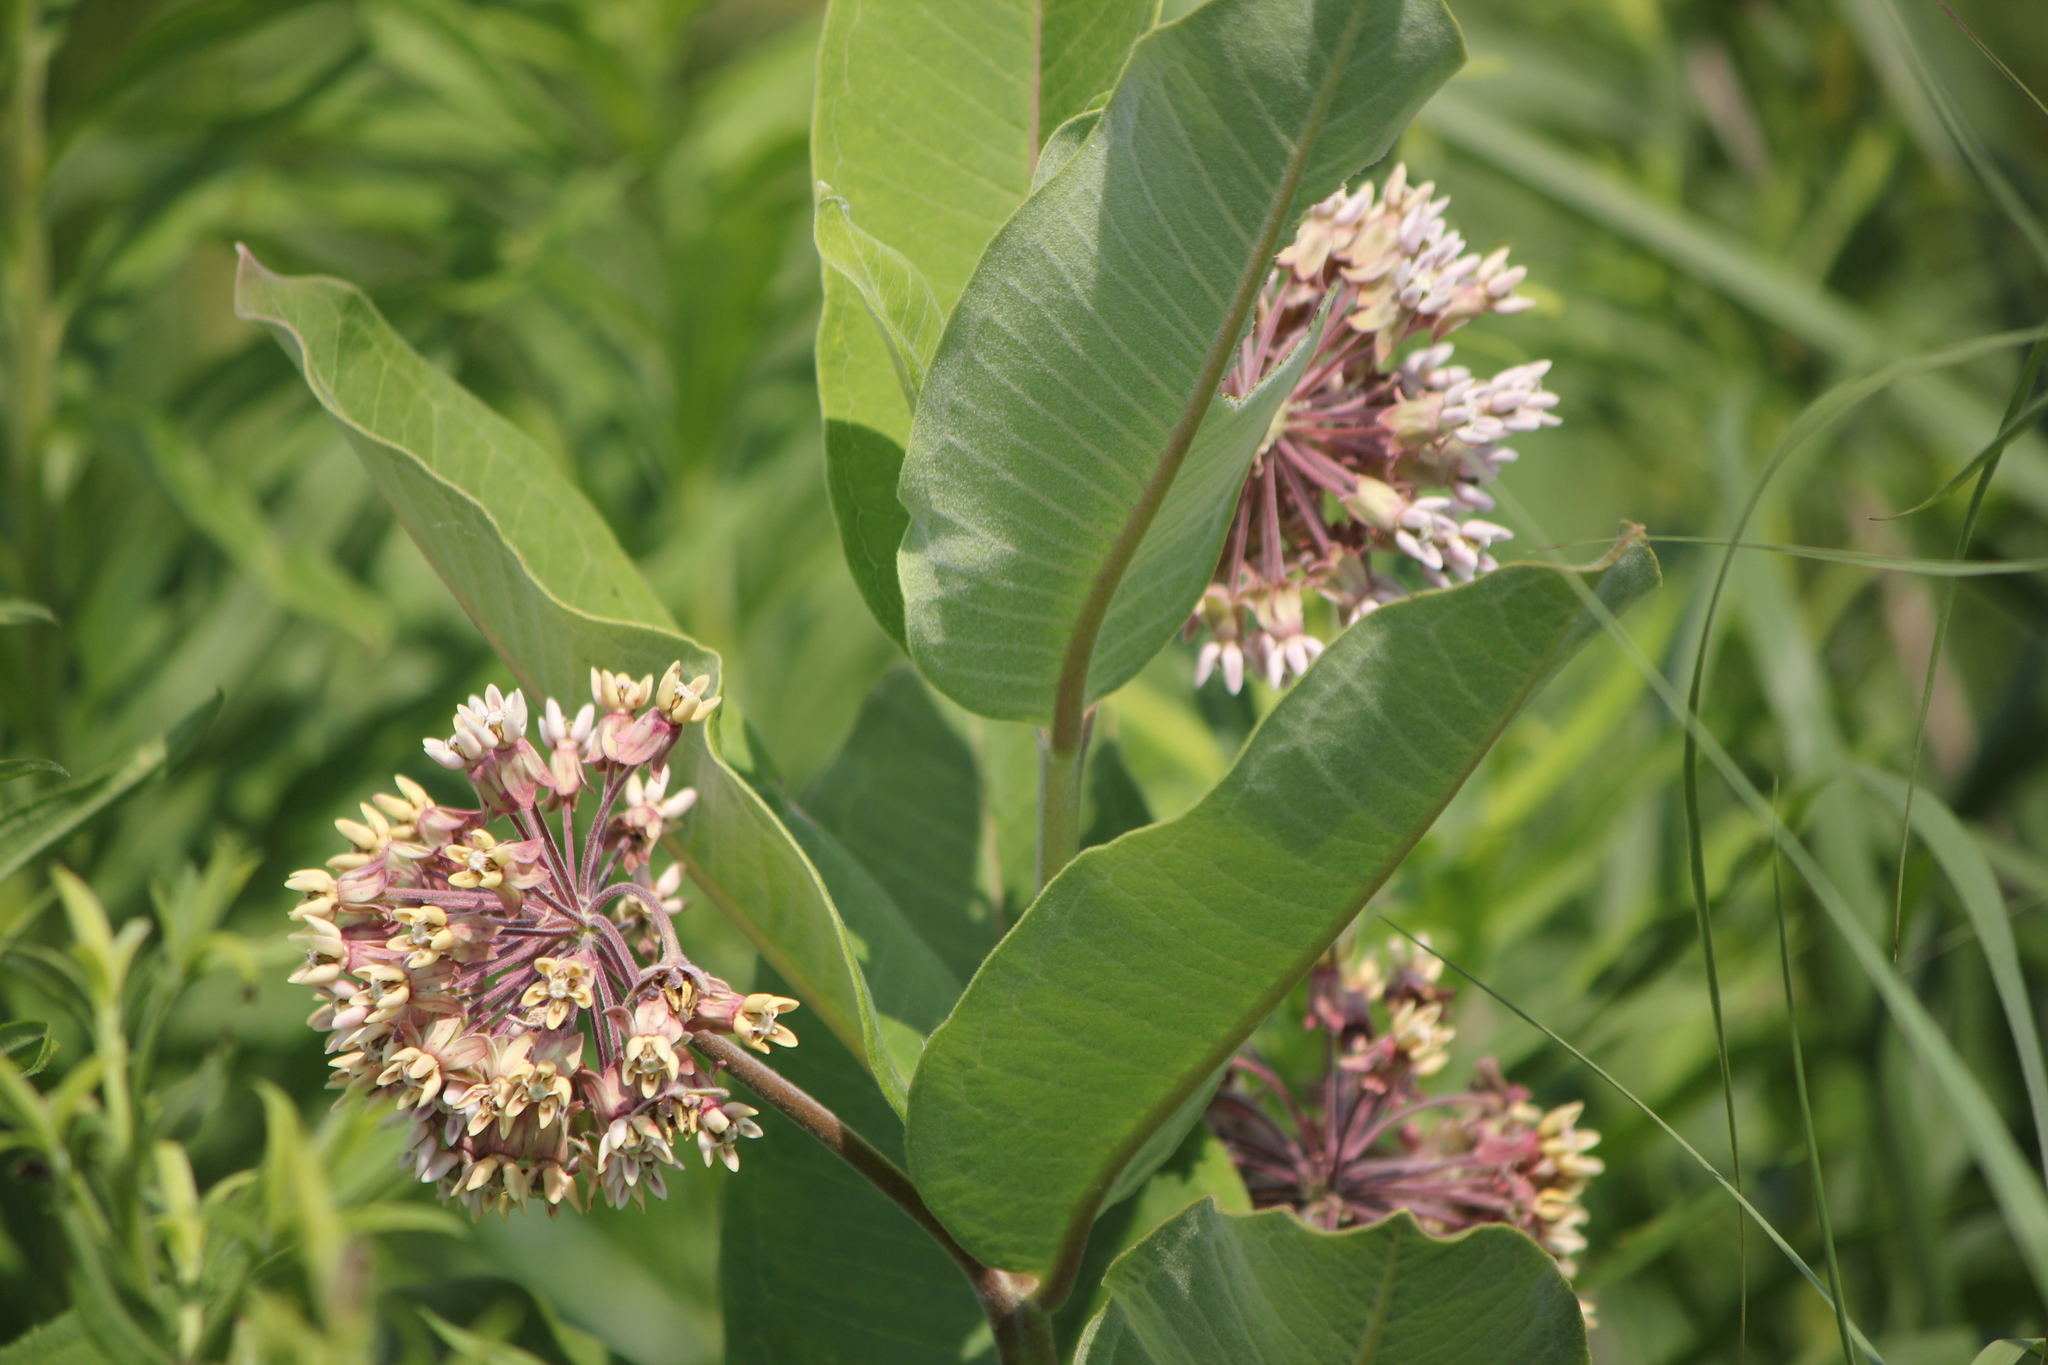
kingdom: Plantae
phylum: Tracheophyta
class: Magnoliopsida
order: Gentianales
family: Apocynaceae
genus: Asclepias
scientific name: Asclepias syriaca
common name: Common milkweed
